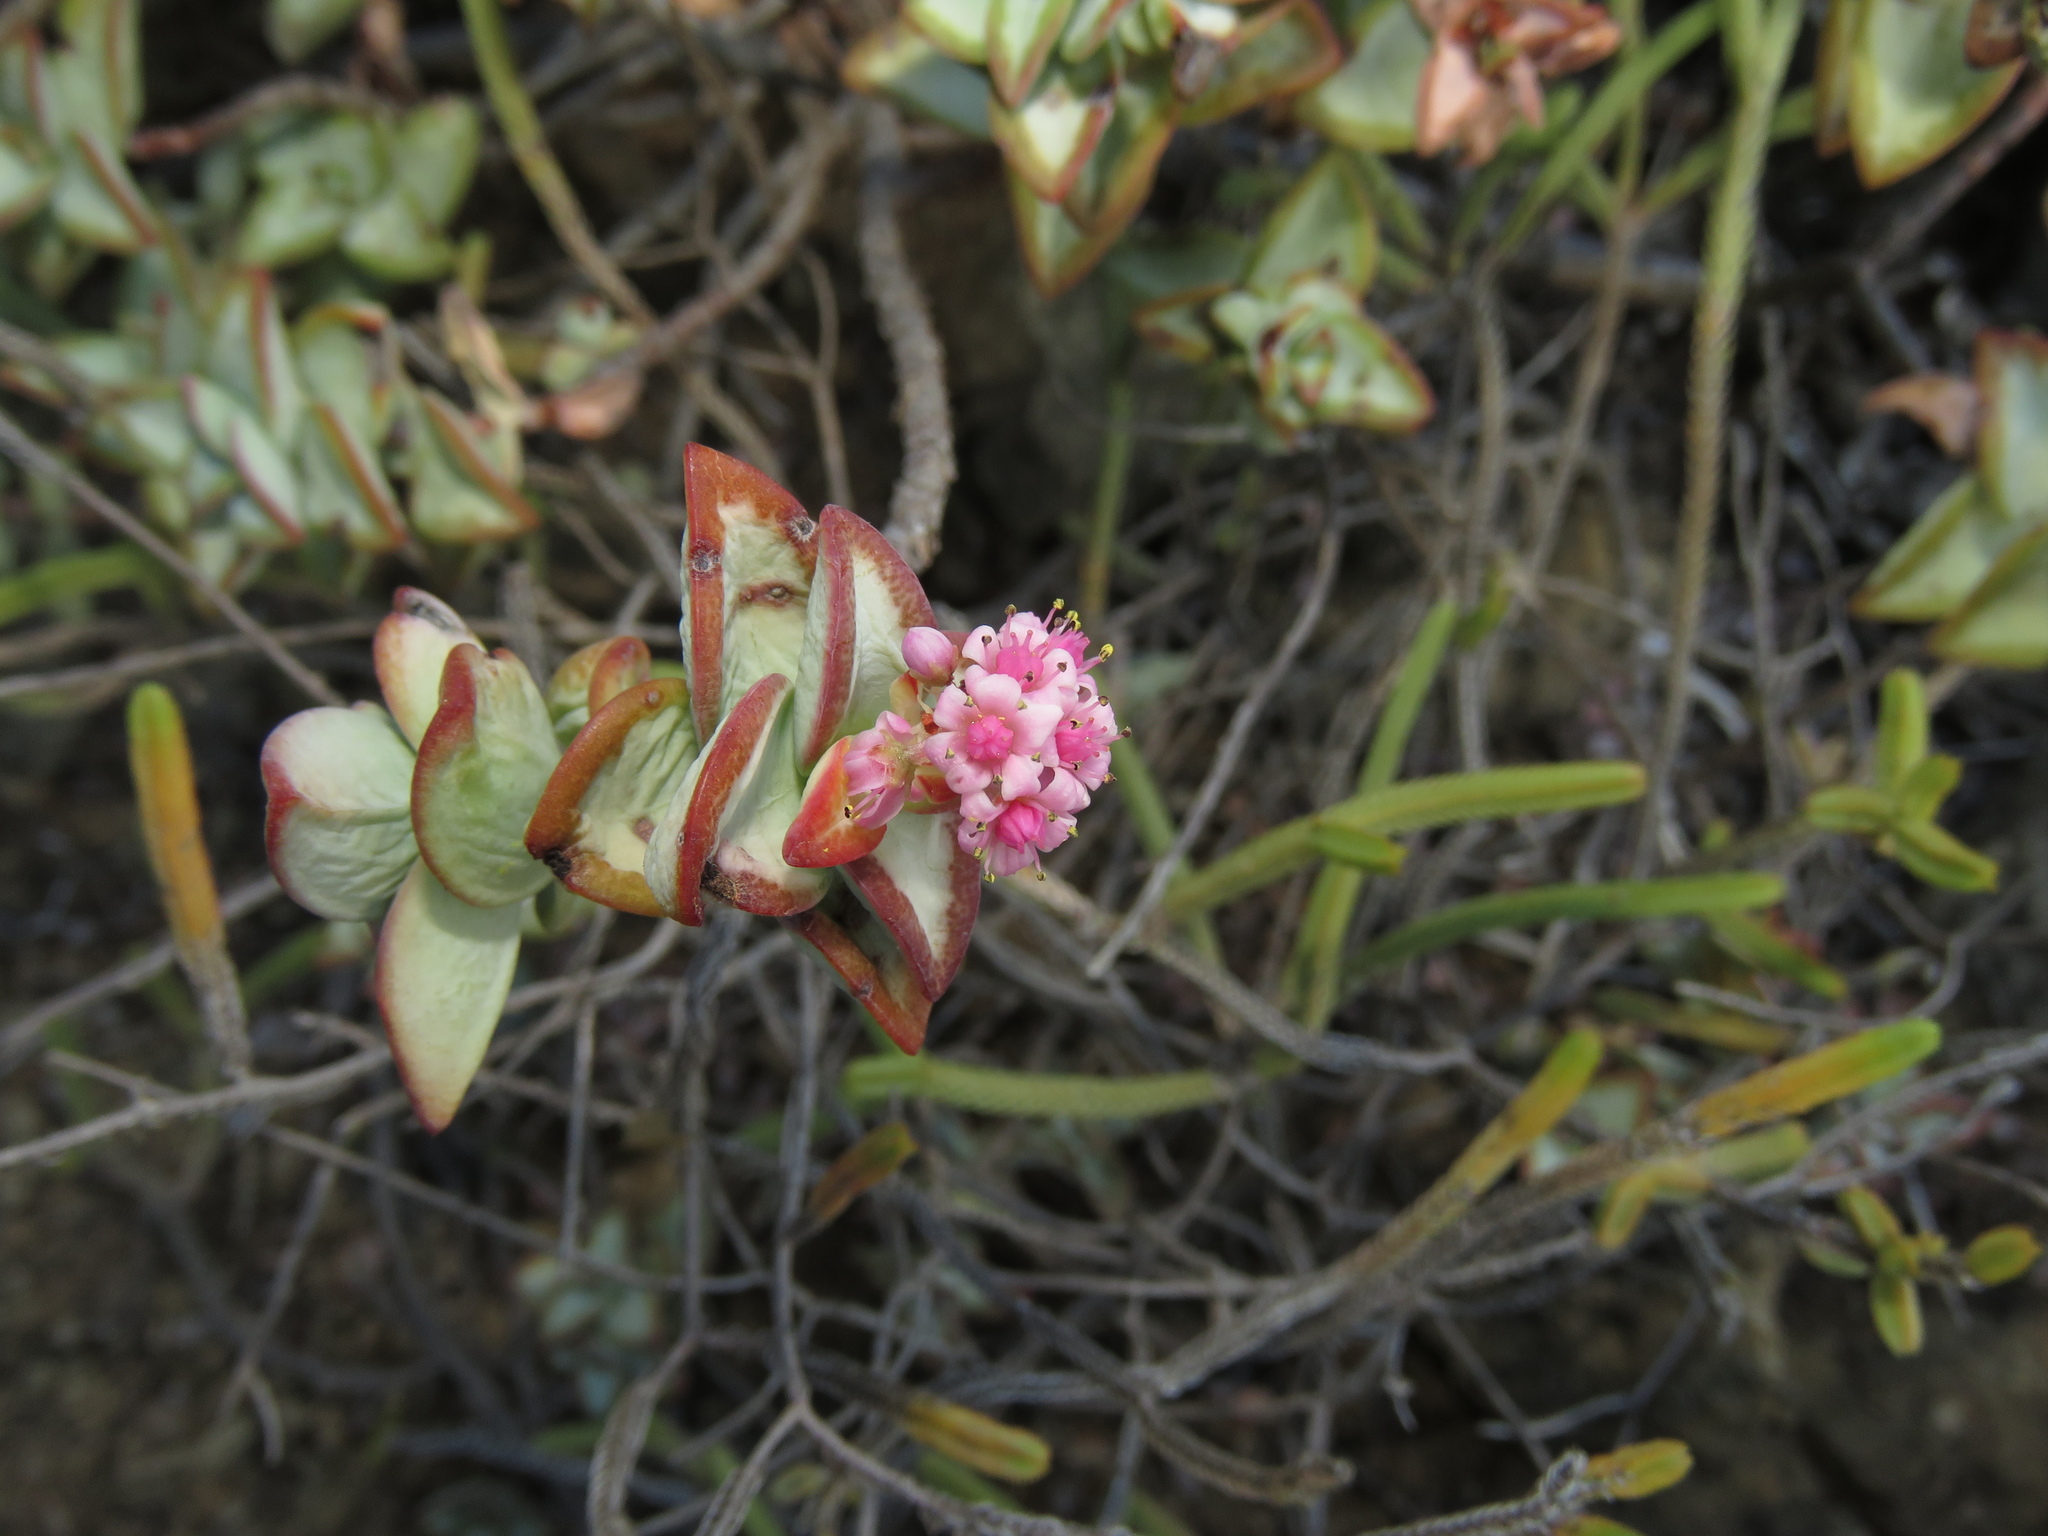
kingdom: Plantae
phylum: Tracheophyta
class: Magnoliopsida
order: Saxifragales
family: Crassulaceae
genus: Crassula
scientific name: Crassula rupestris
